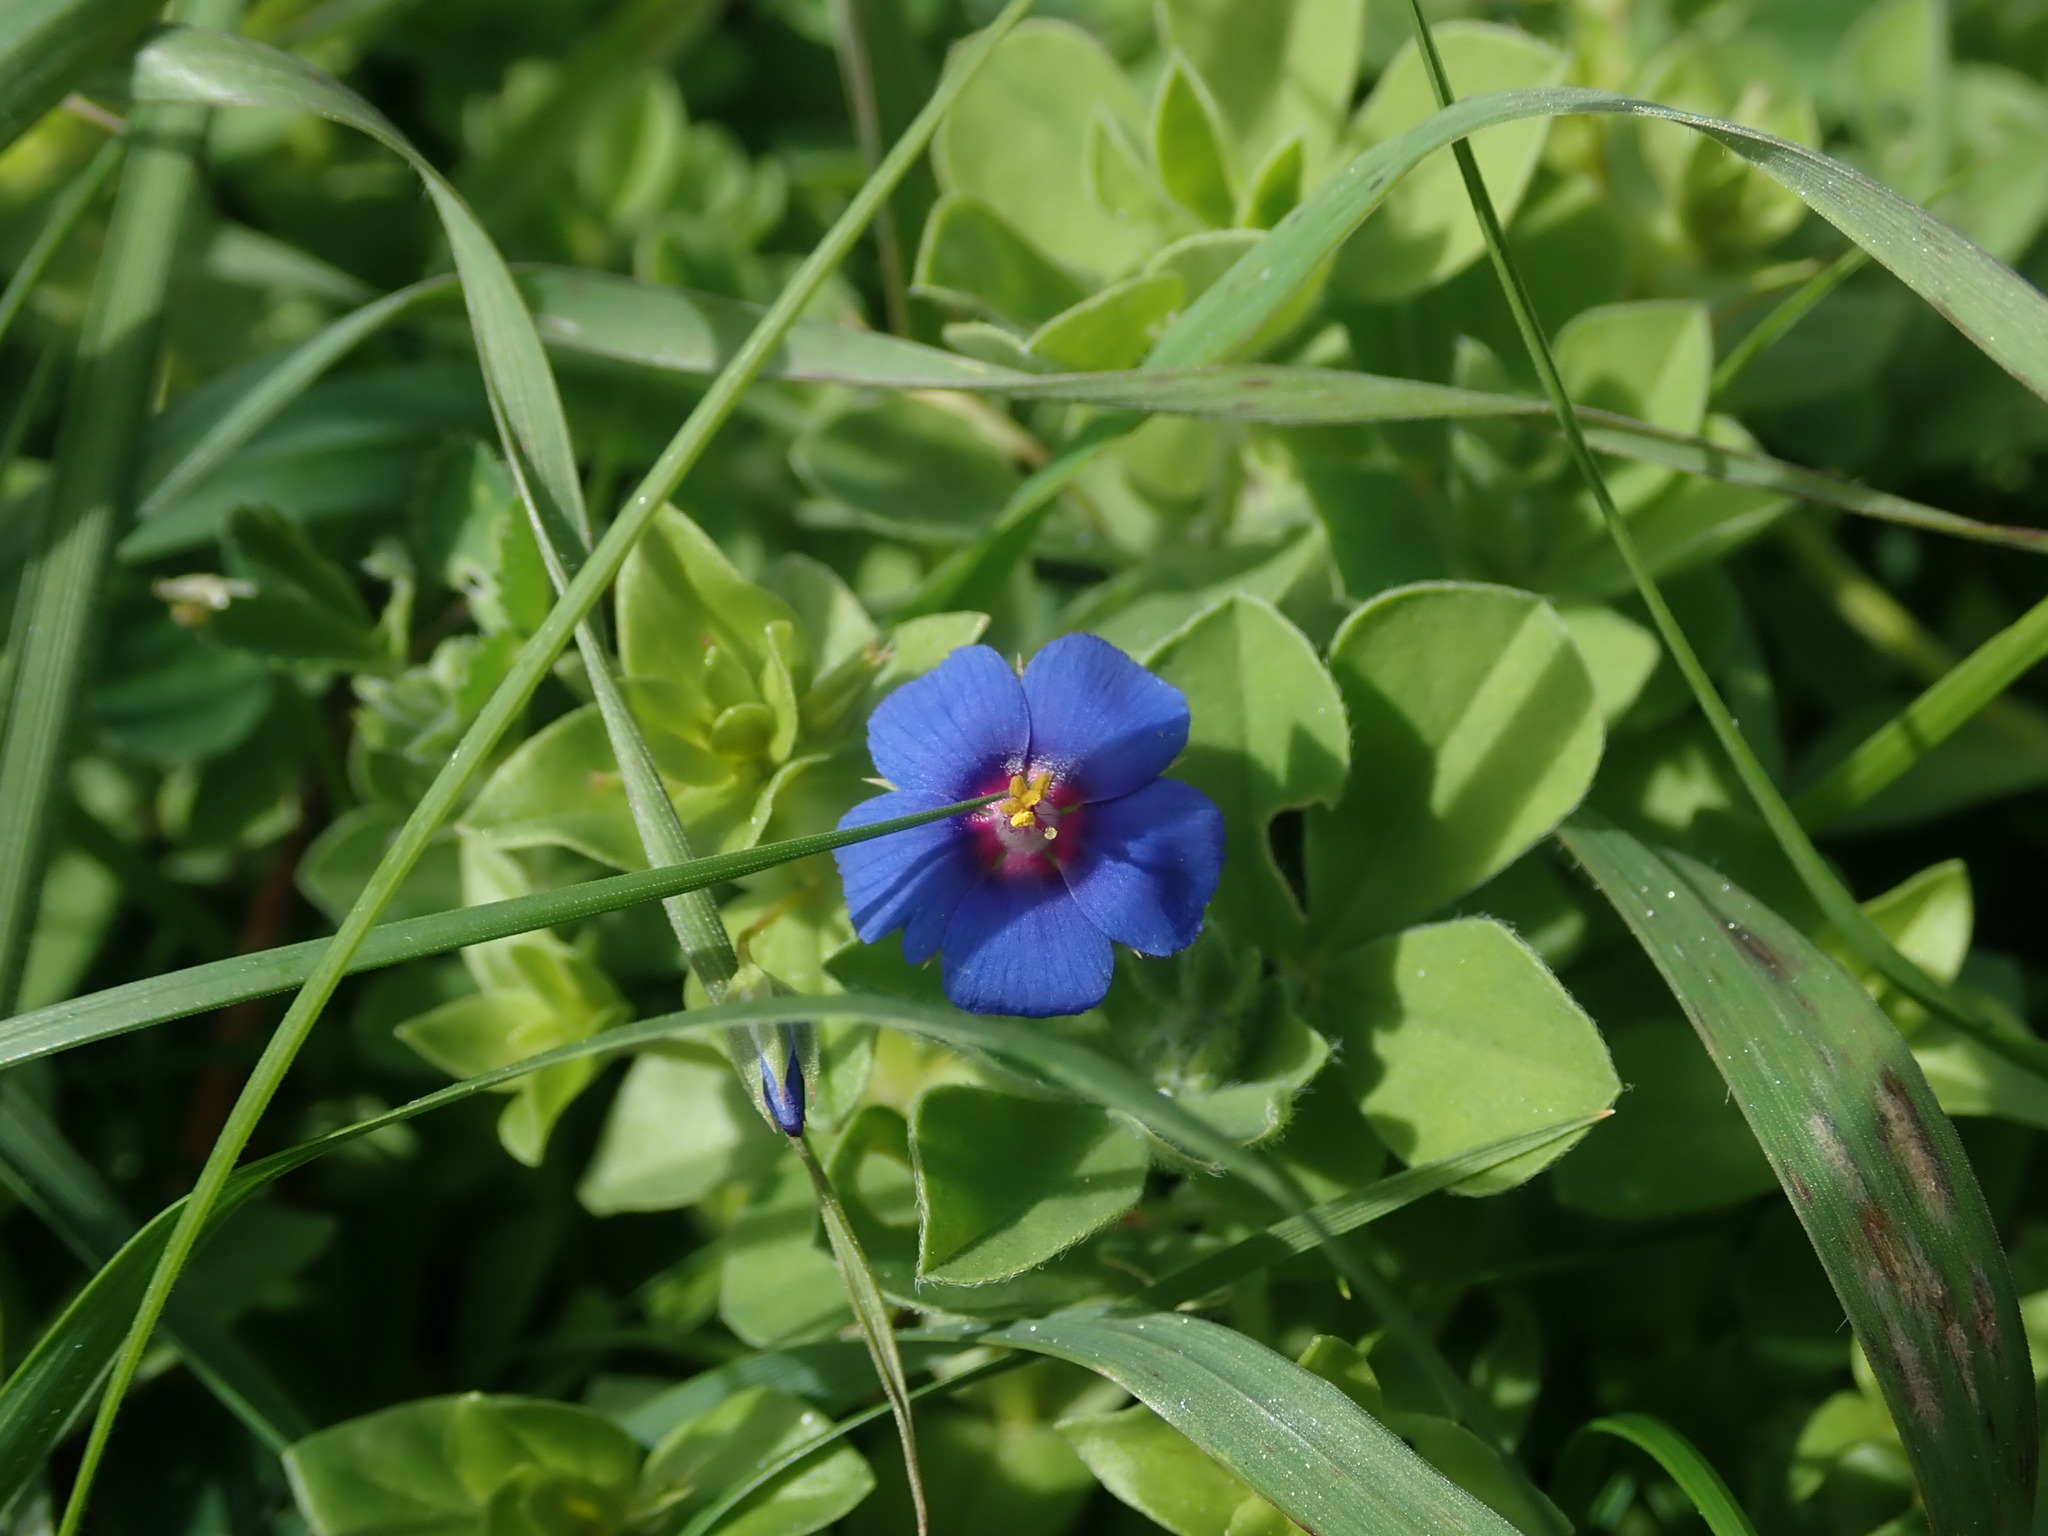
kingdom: Plantae
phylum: Tracheophyta
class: Magnoliopsida
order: Ericales
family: Primulaceae
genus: Lysimachia
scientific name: Lysimachia loeflingii
